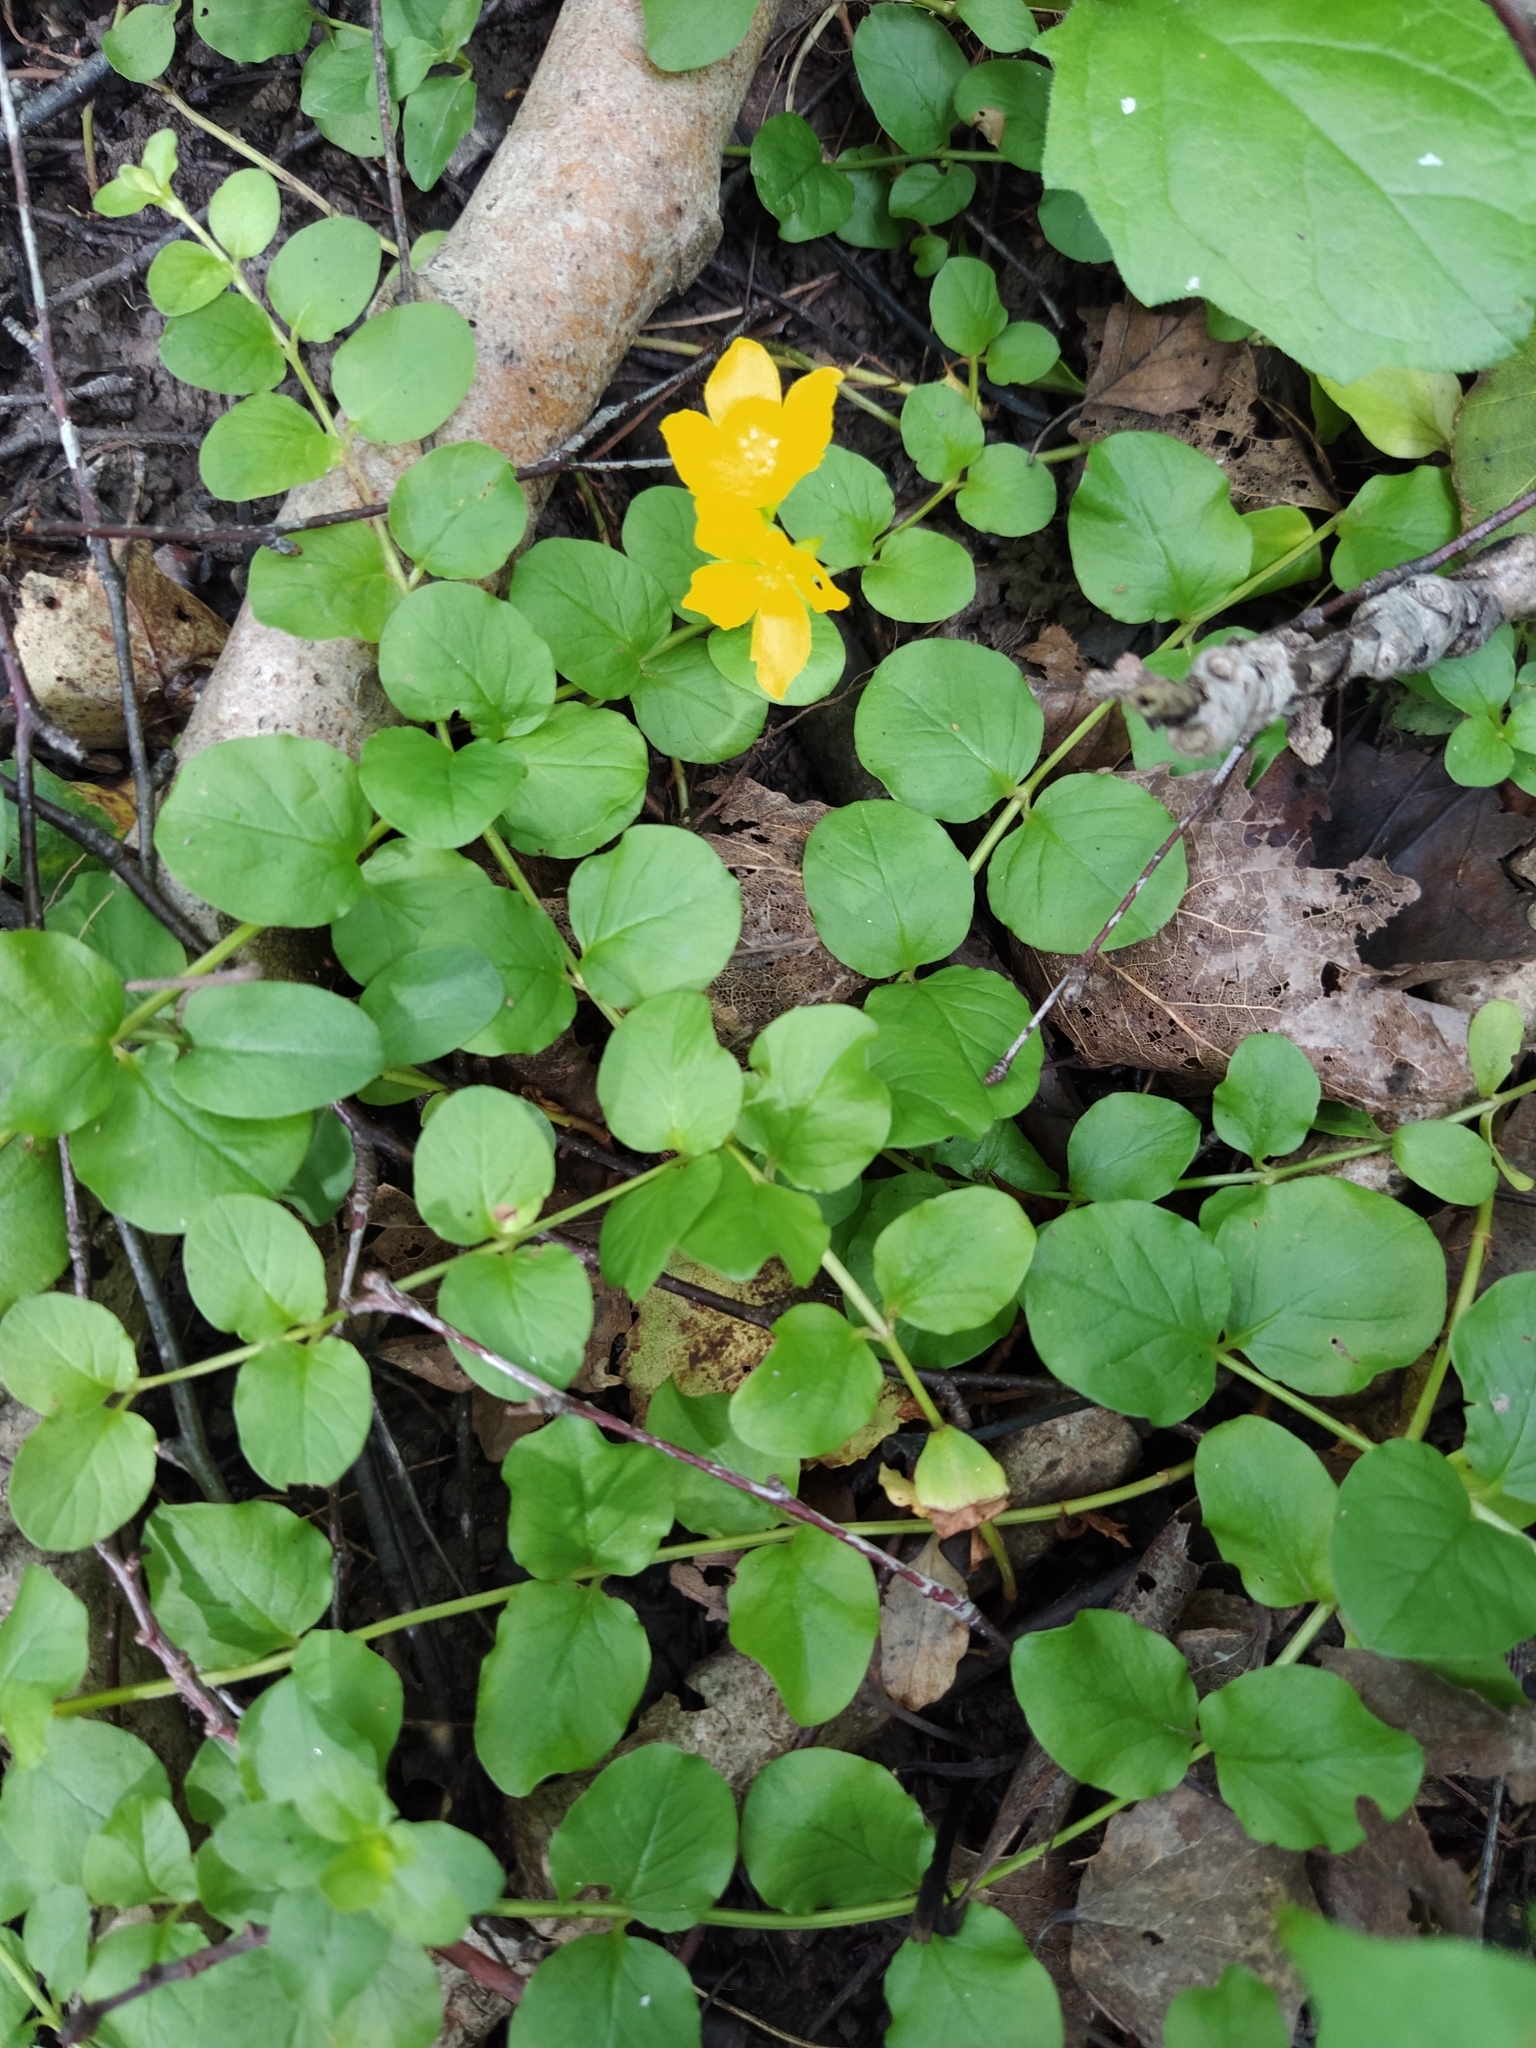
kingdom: Plantae
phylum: Tracheophyta
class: Magnoliopsida
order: Ericales
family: Primulaceae
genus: Lysimachia
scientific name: Lysimachia nummularia
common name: Moneywort
